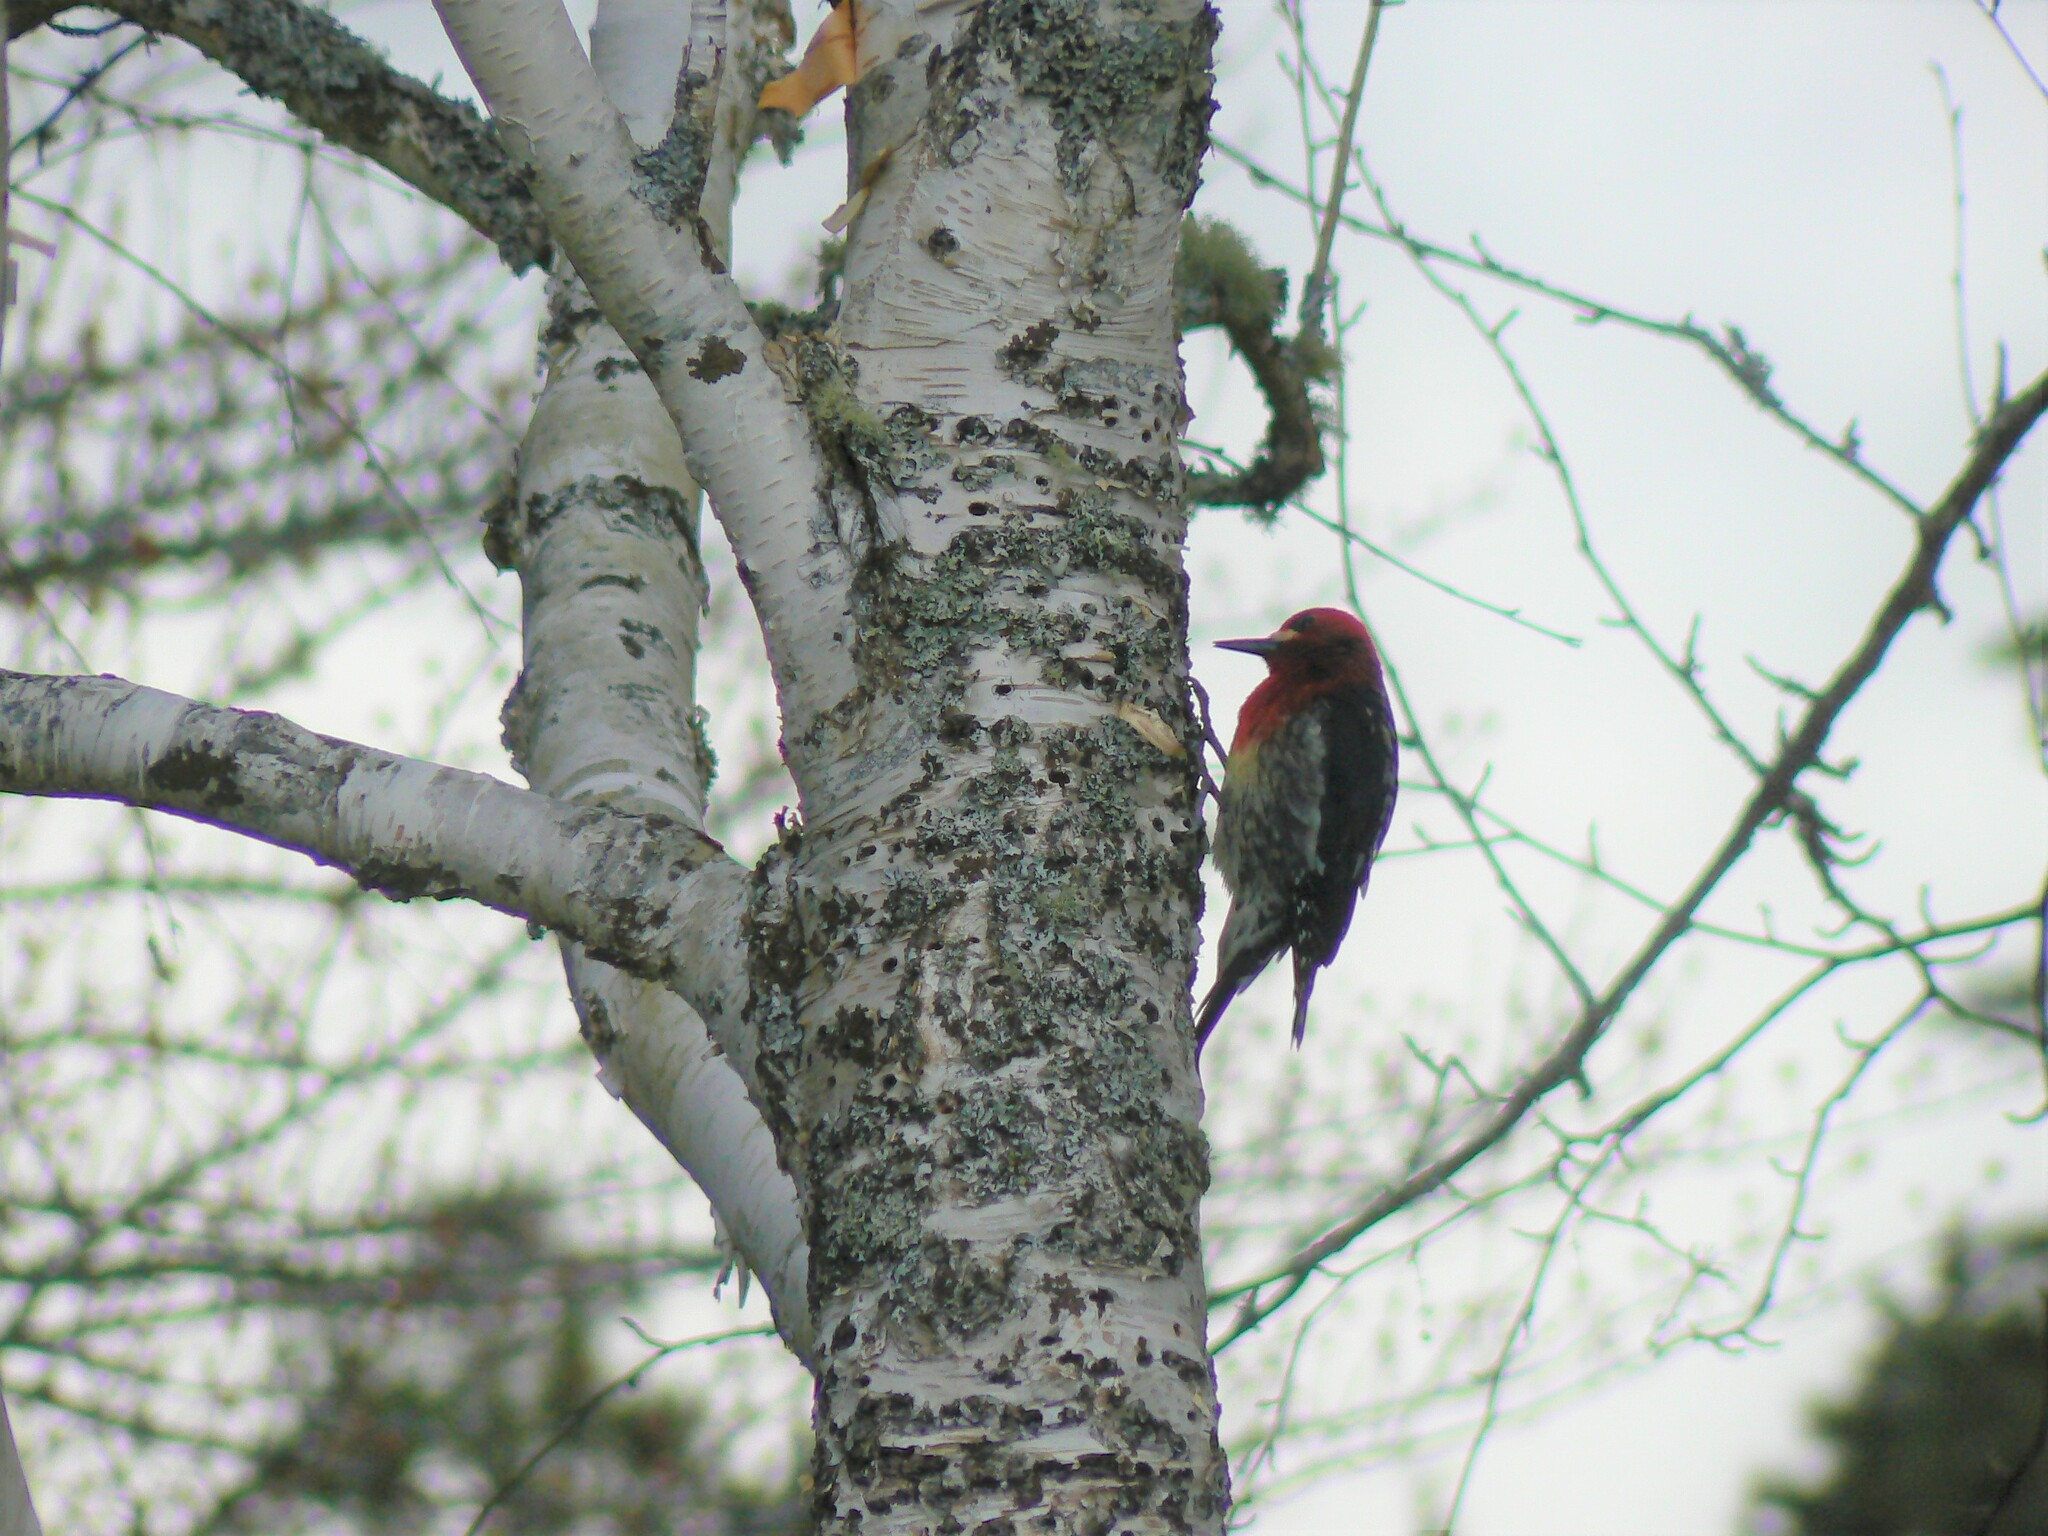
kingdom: Animalia
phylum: Chordata
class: Aves
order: Piciformes
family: Picidae
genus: Sphyrapicus
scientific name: Sphyrapicus ruber
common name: Red-breasted sapsucker
